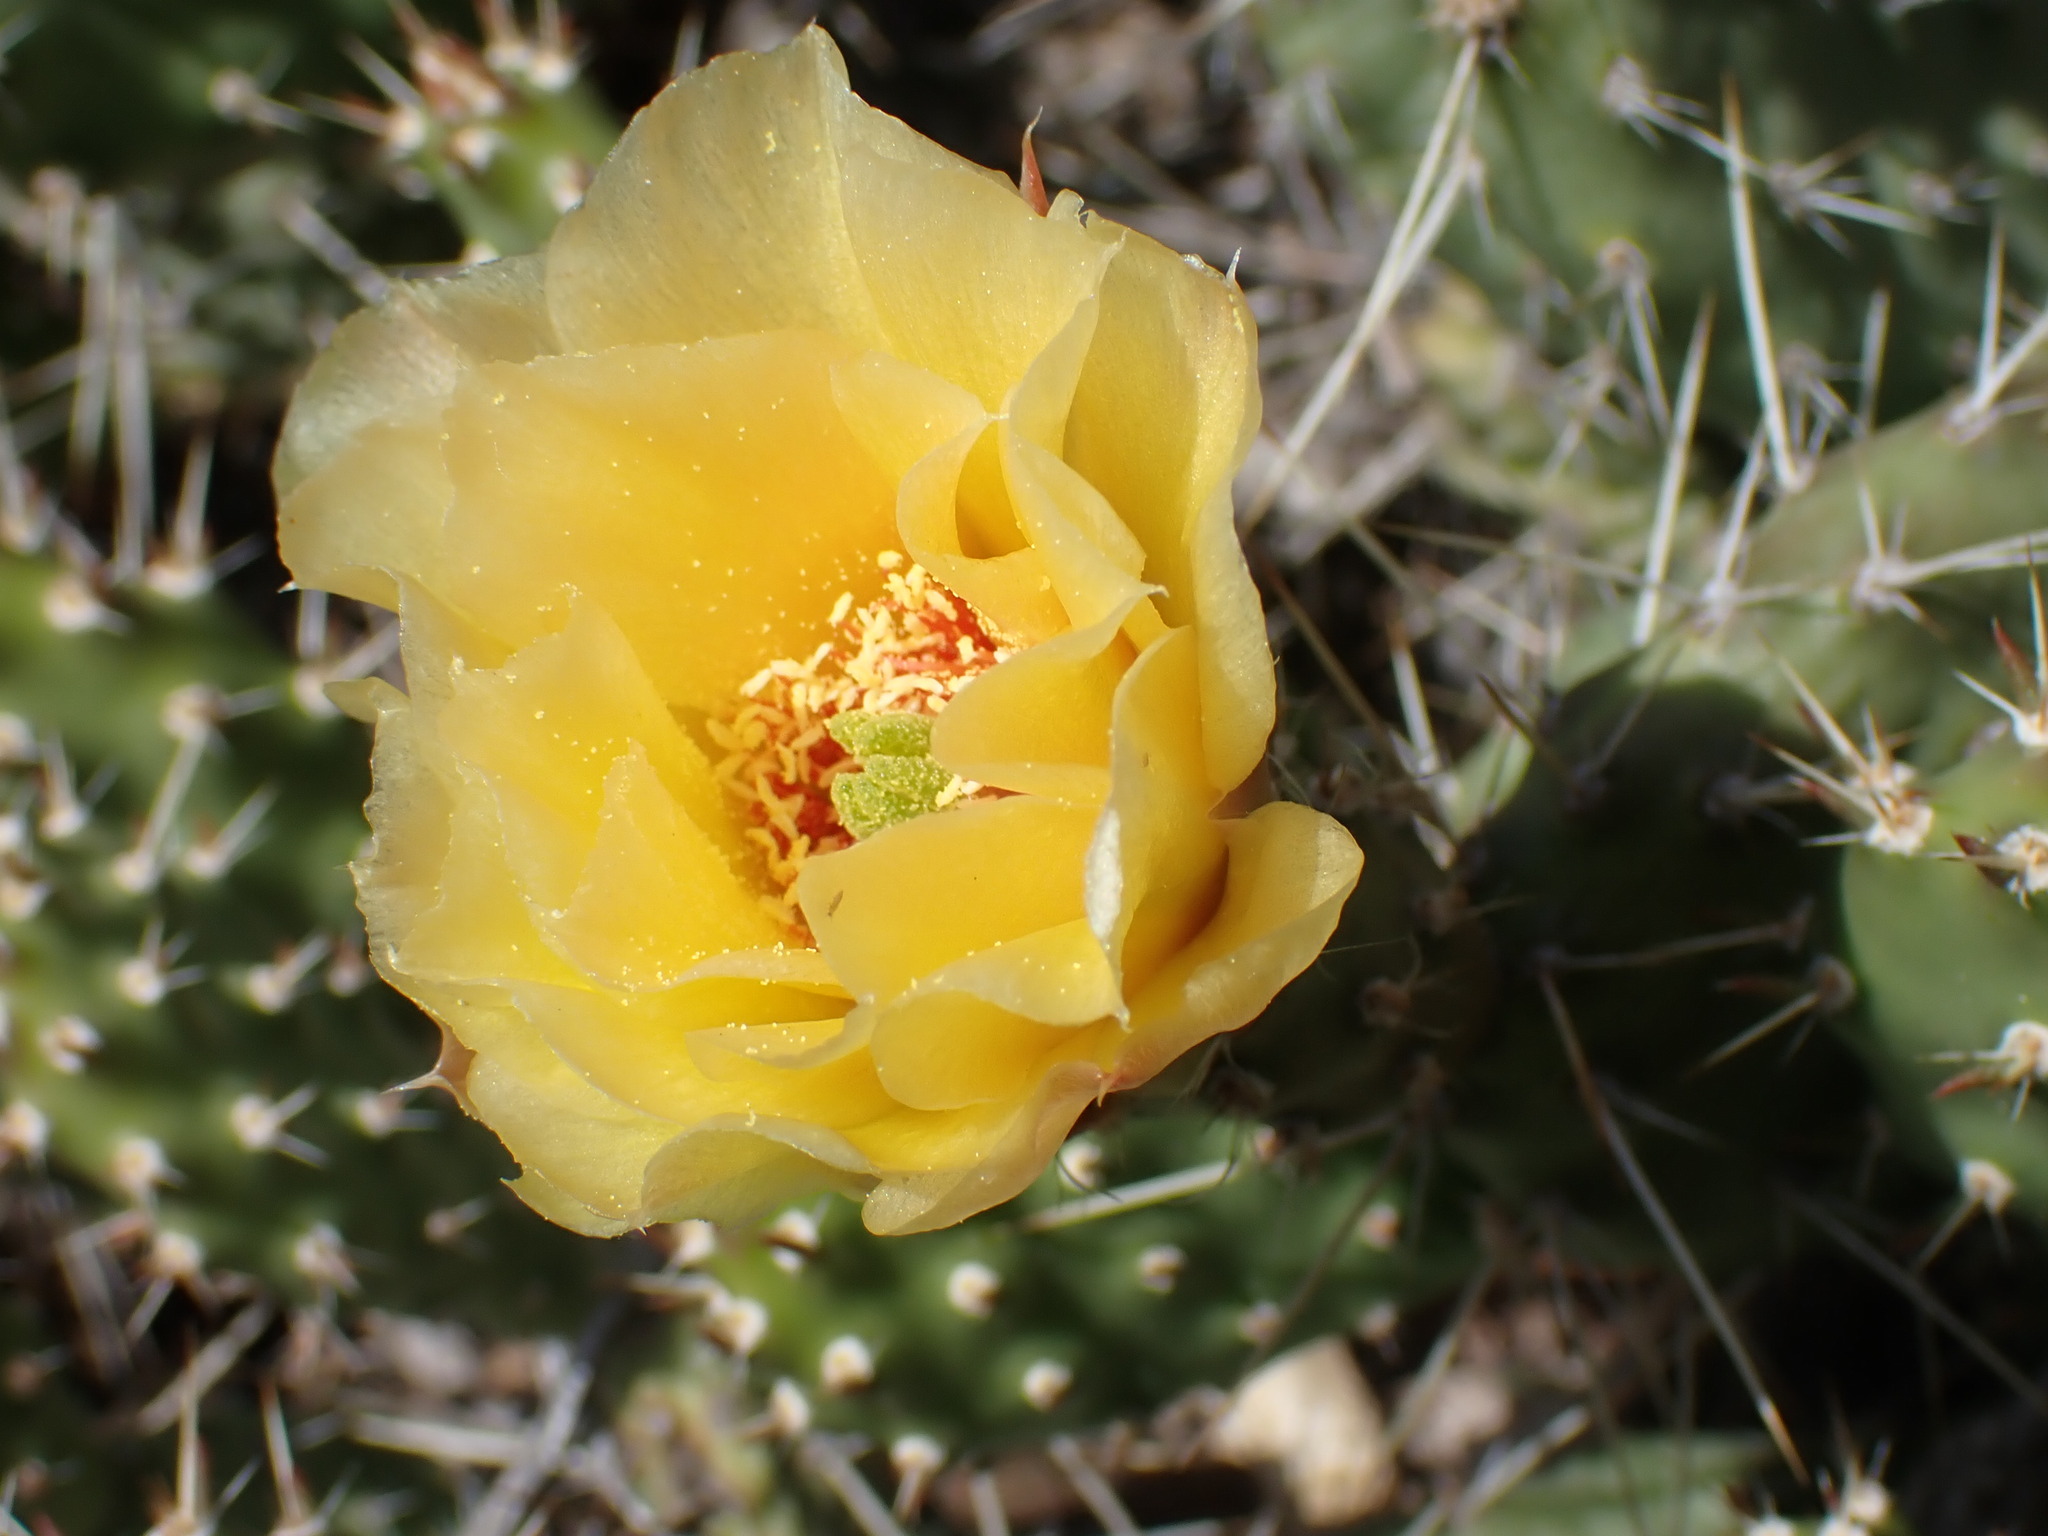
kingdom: Plantae
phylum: Tracheophyta
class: Magnoliopsida
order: Caryophyllales
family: Cactaceae
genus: Opuntia
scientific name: Opuntia fragilis
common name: Brittle cactus
